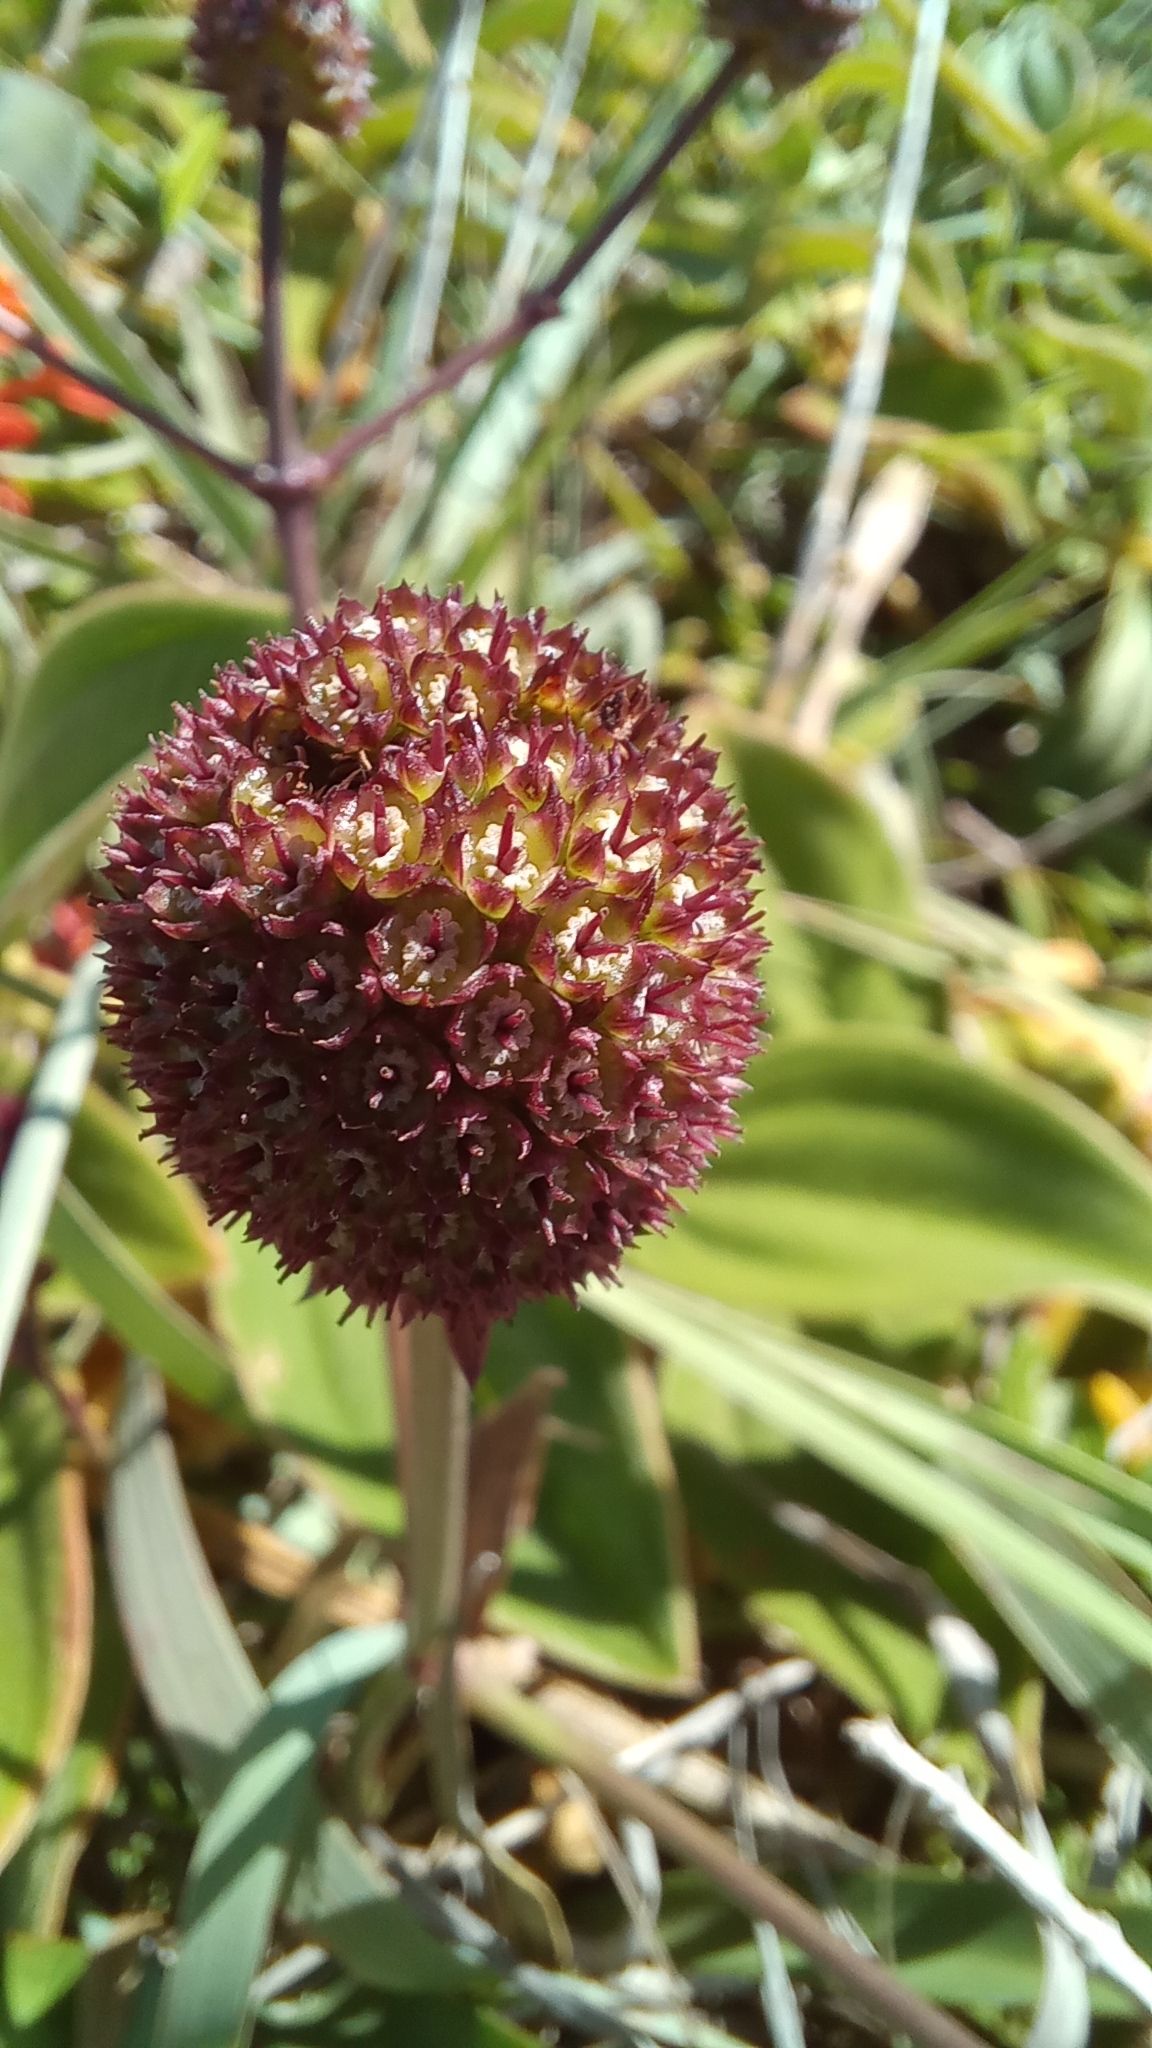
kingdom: Plantae
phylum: Tracheophyta
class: Magnoliopsida
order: Apiales
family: Apiaceae
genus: Eryngium
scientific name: Eryngium sanguisorba
